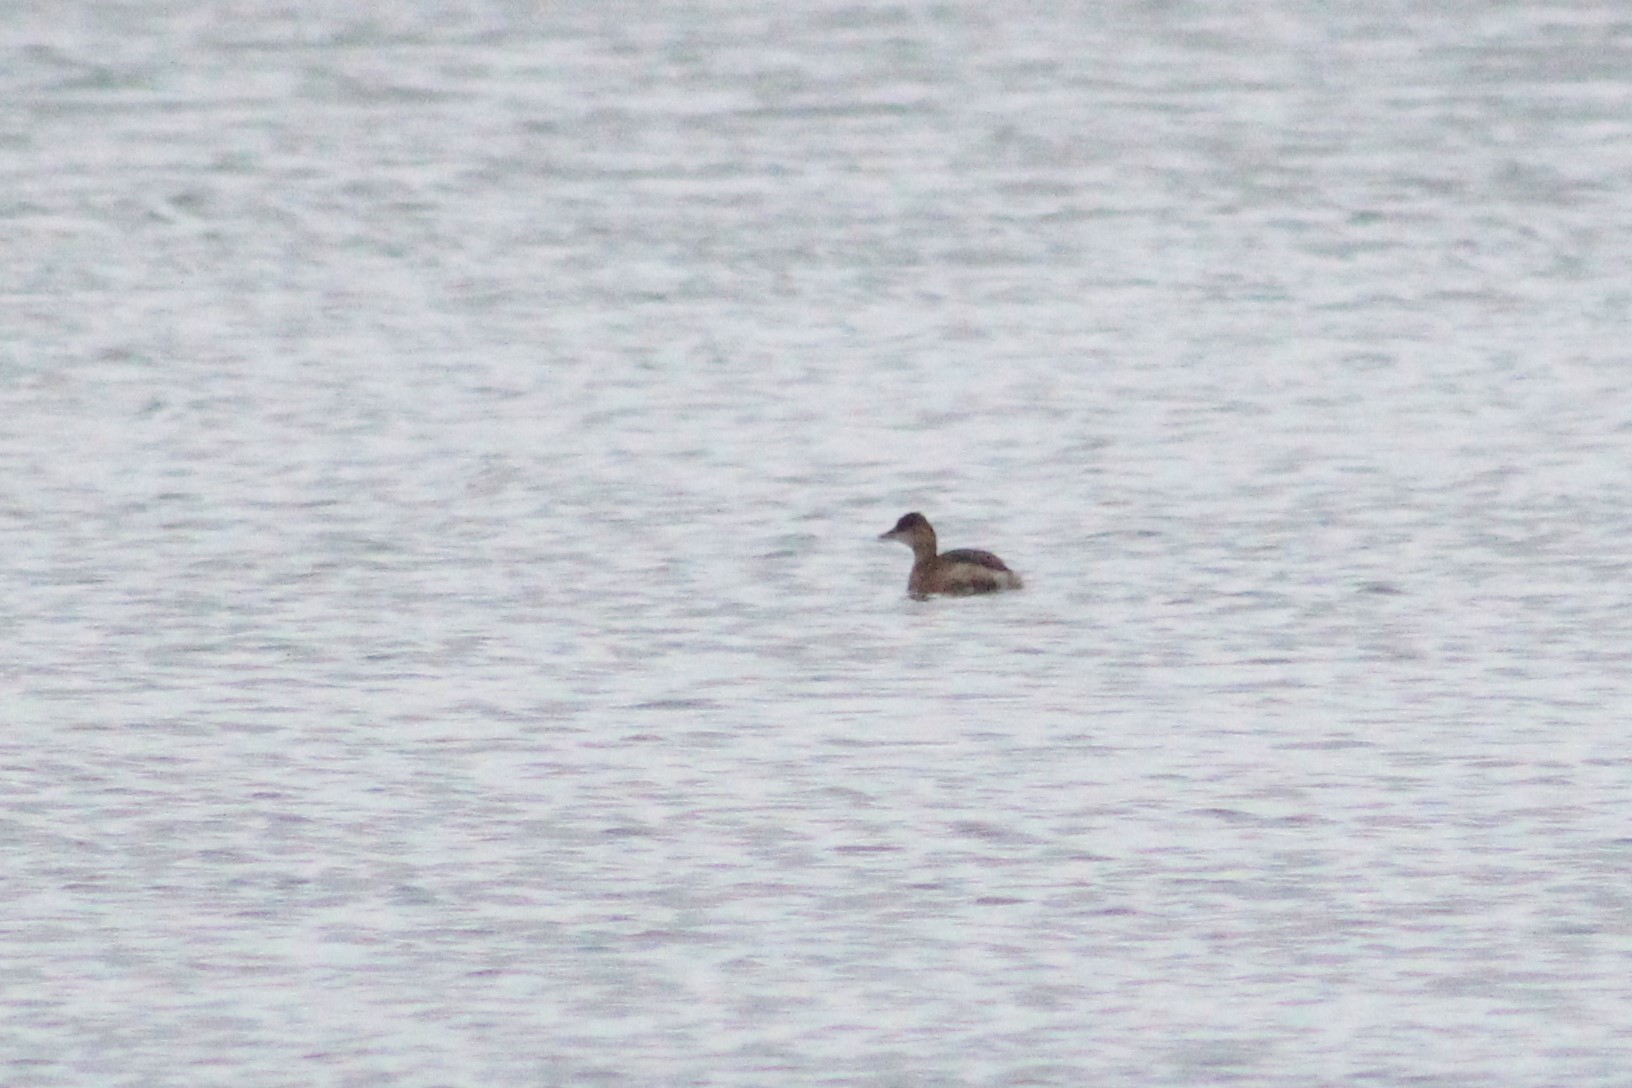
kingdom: Animalia
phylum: Chordata
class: Aves
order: Podicipediformes
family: Podicipedidae
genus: Tachybaptus
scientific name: Tachybaptus ruficollis
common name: Little grebe
